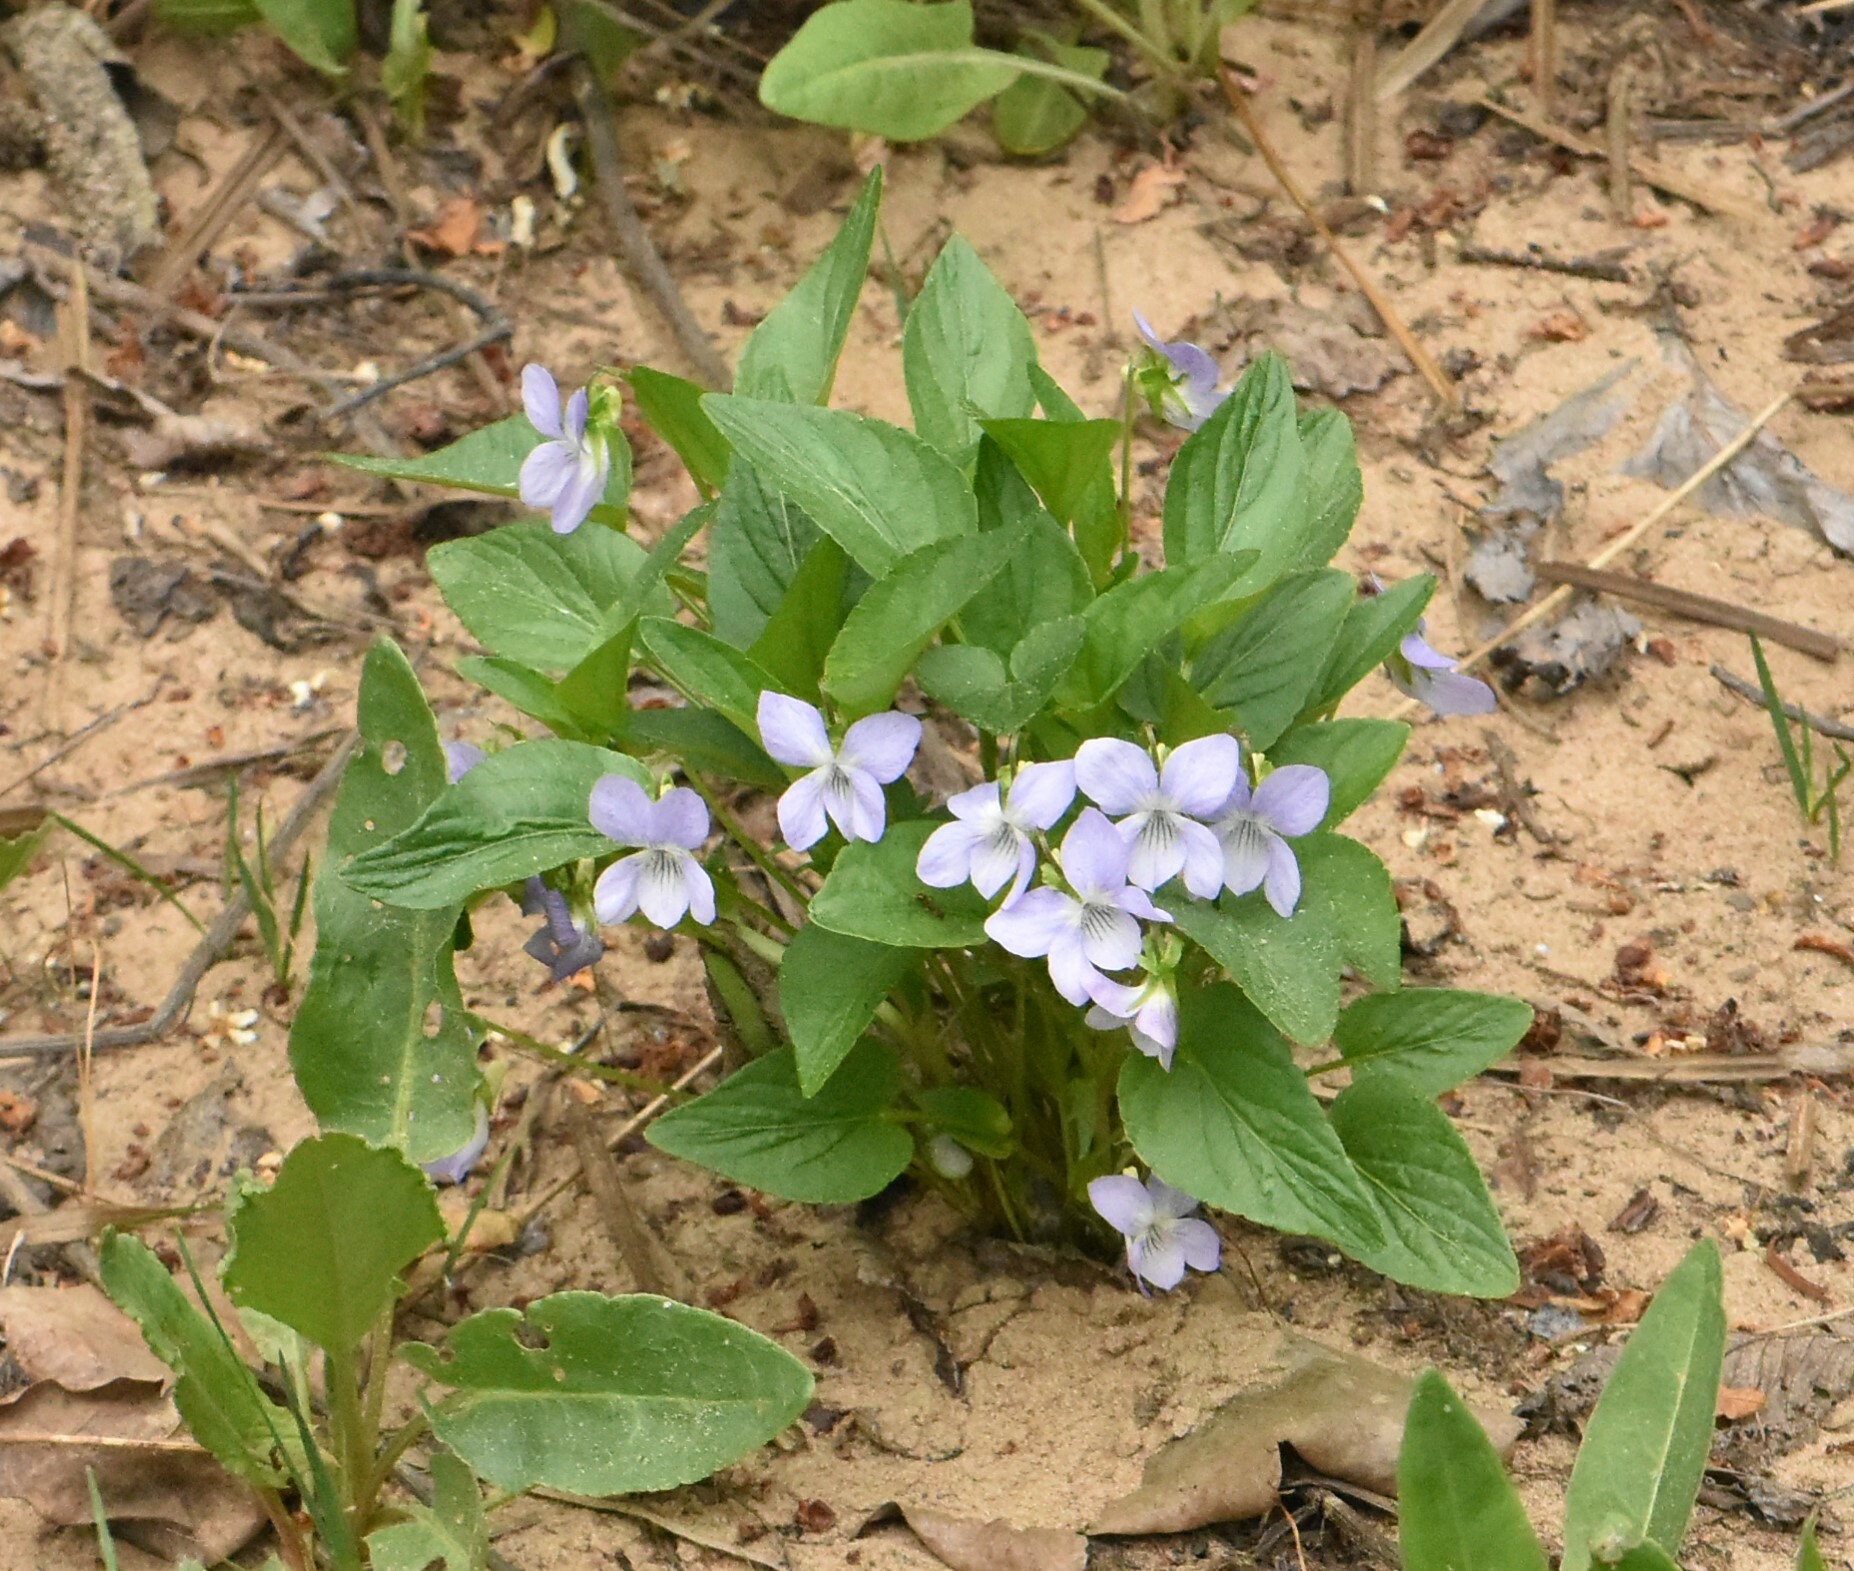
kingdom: Plantae
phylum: Tracheophyta
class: Magnoliopsida
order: Malpighiales
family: Violaceae
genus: Viola
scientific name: Viola canina
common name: Heath dog-violet
